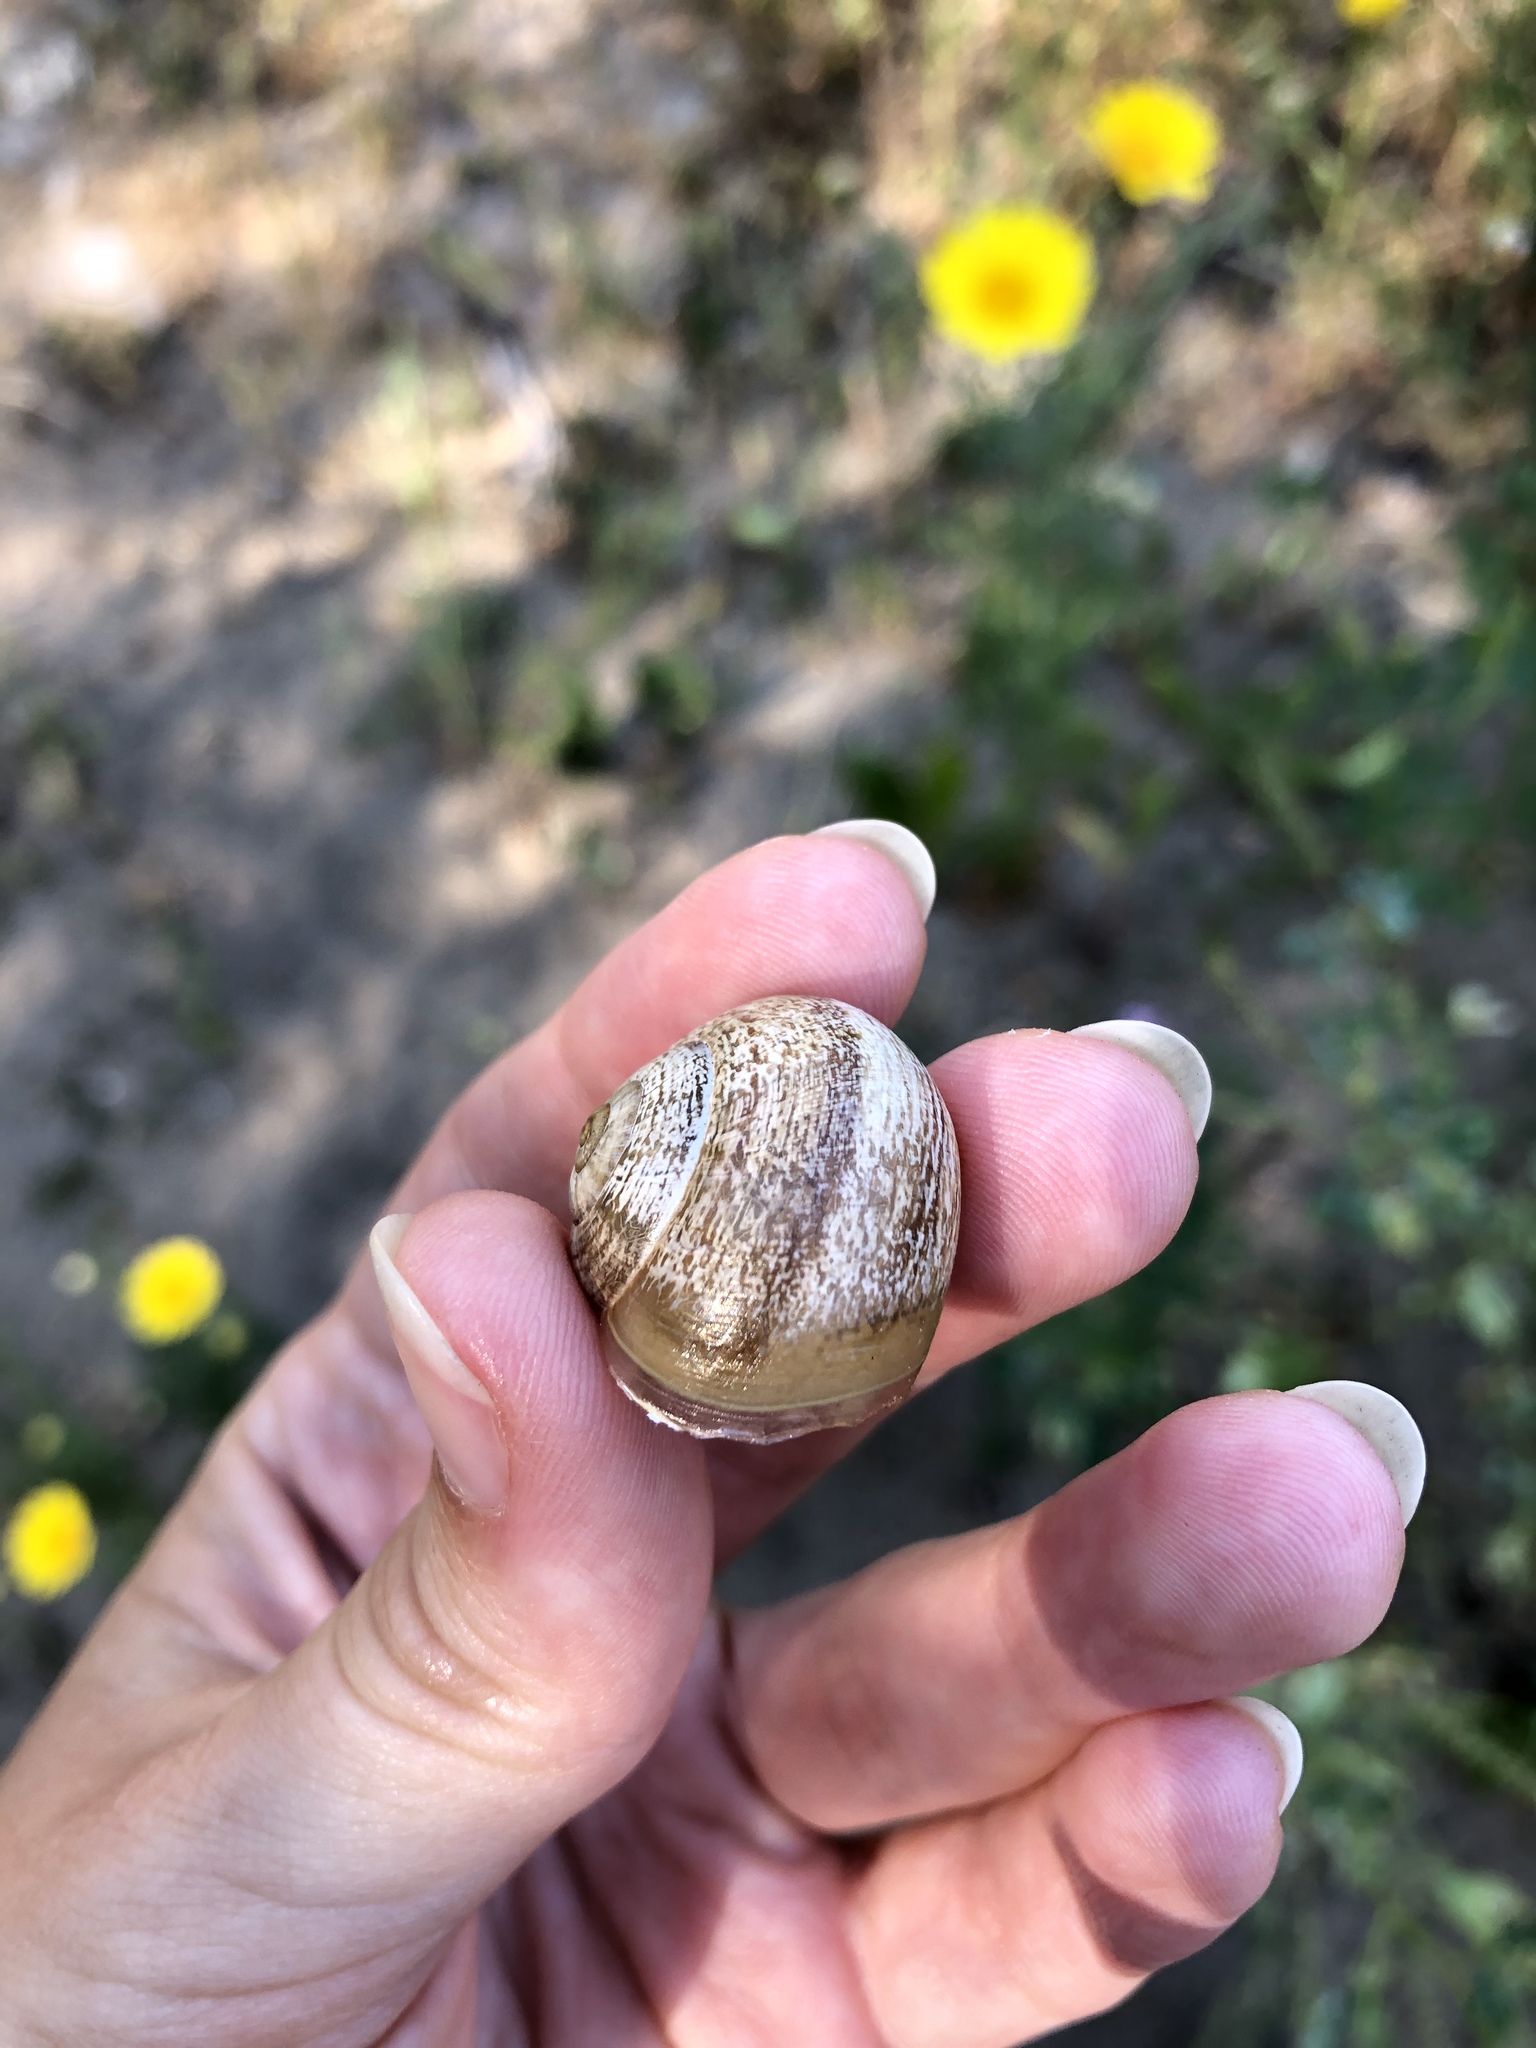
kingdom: Animalia
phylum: Mollusca
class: Gastropoda
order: Stylommatophora
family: Helicidae
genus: Otala
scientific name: Otala lactea
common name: Milk snail
